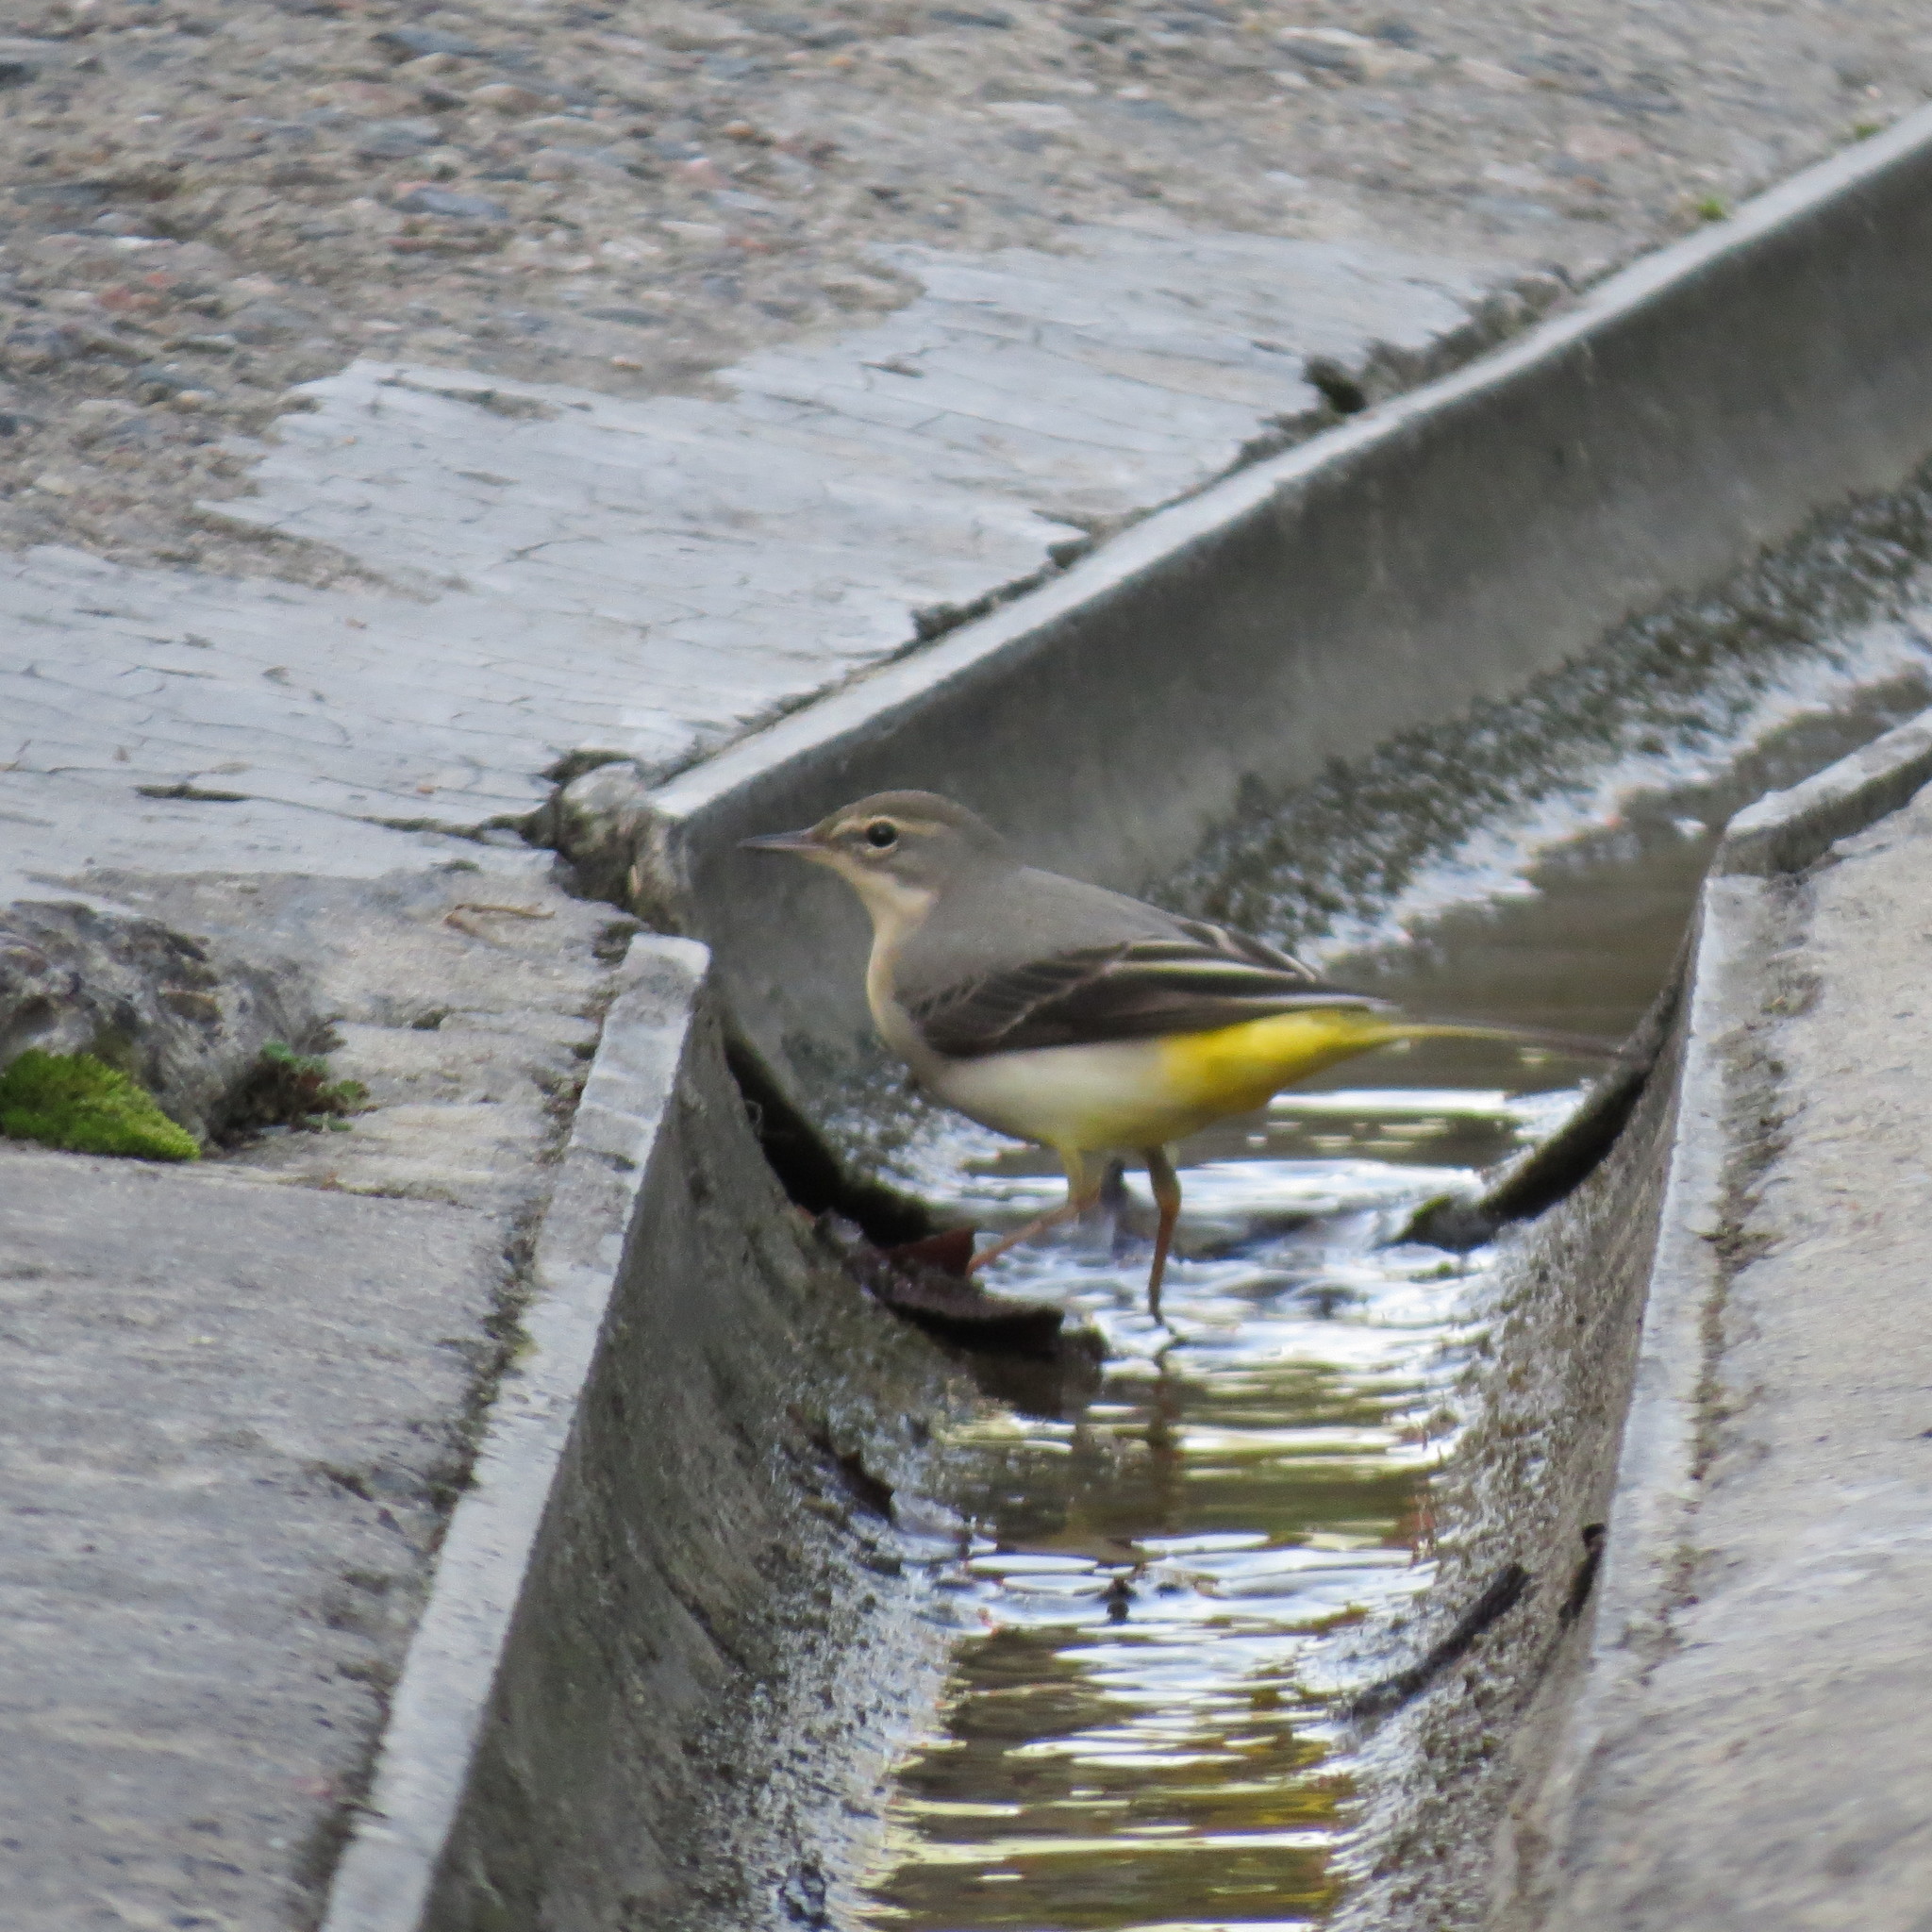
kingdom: Animalia
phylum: Chordata
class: Aves
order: Passeriformes
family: Motacillidae
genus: Motacilla
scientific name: Motacilla cinerea
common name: Grey wagtail
